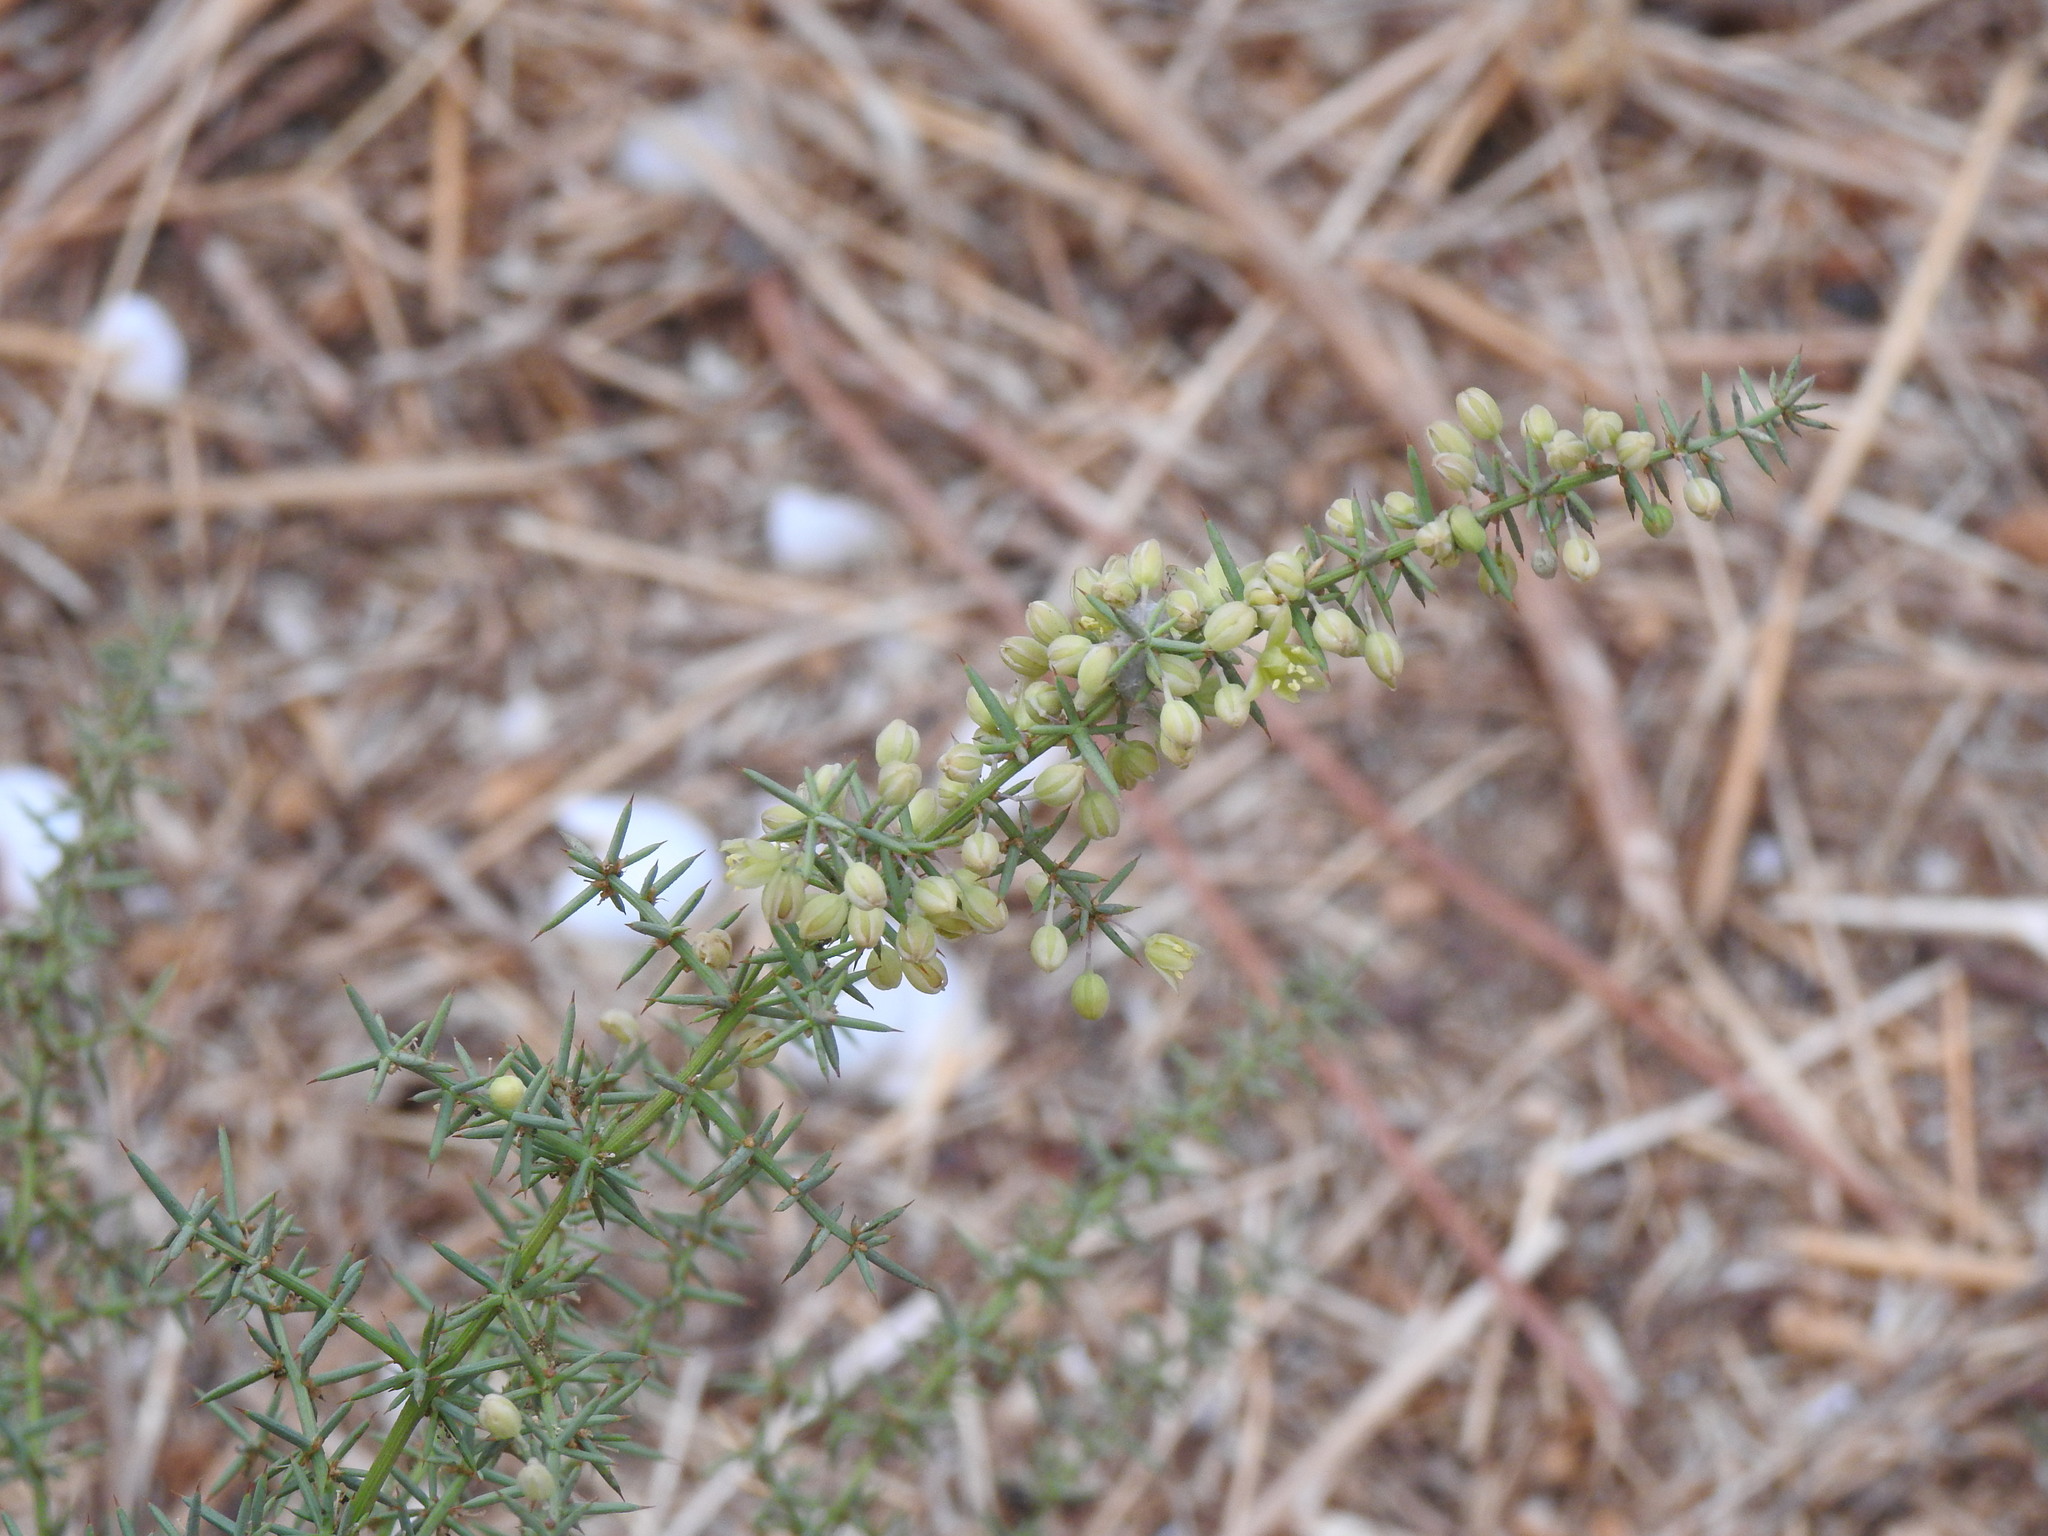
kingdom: Plantae
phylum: Tracheophyta
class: Liliopsida
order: Asparagales
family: Asparagaceae
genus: Asparagus
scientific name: Asparagus aphyllus
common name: Mediterranean asparagus
